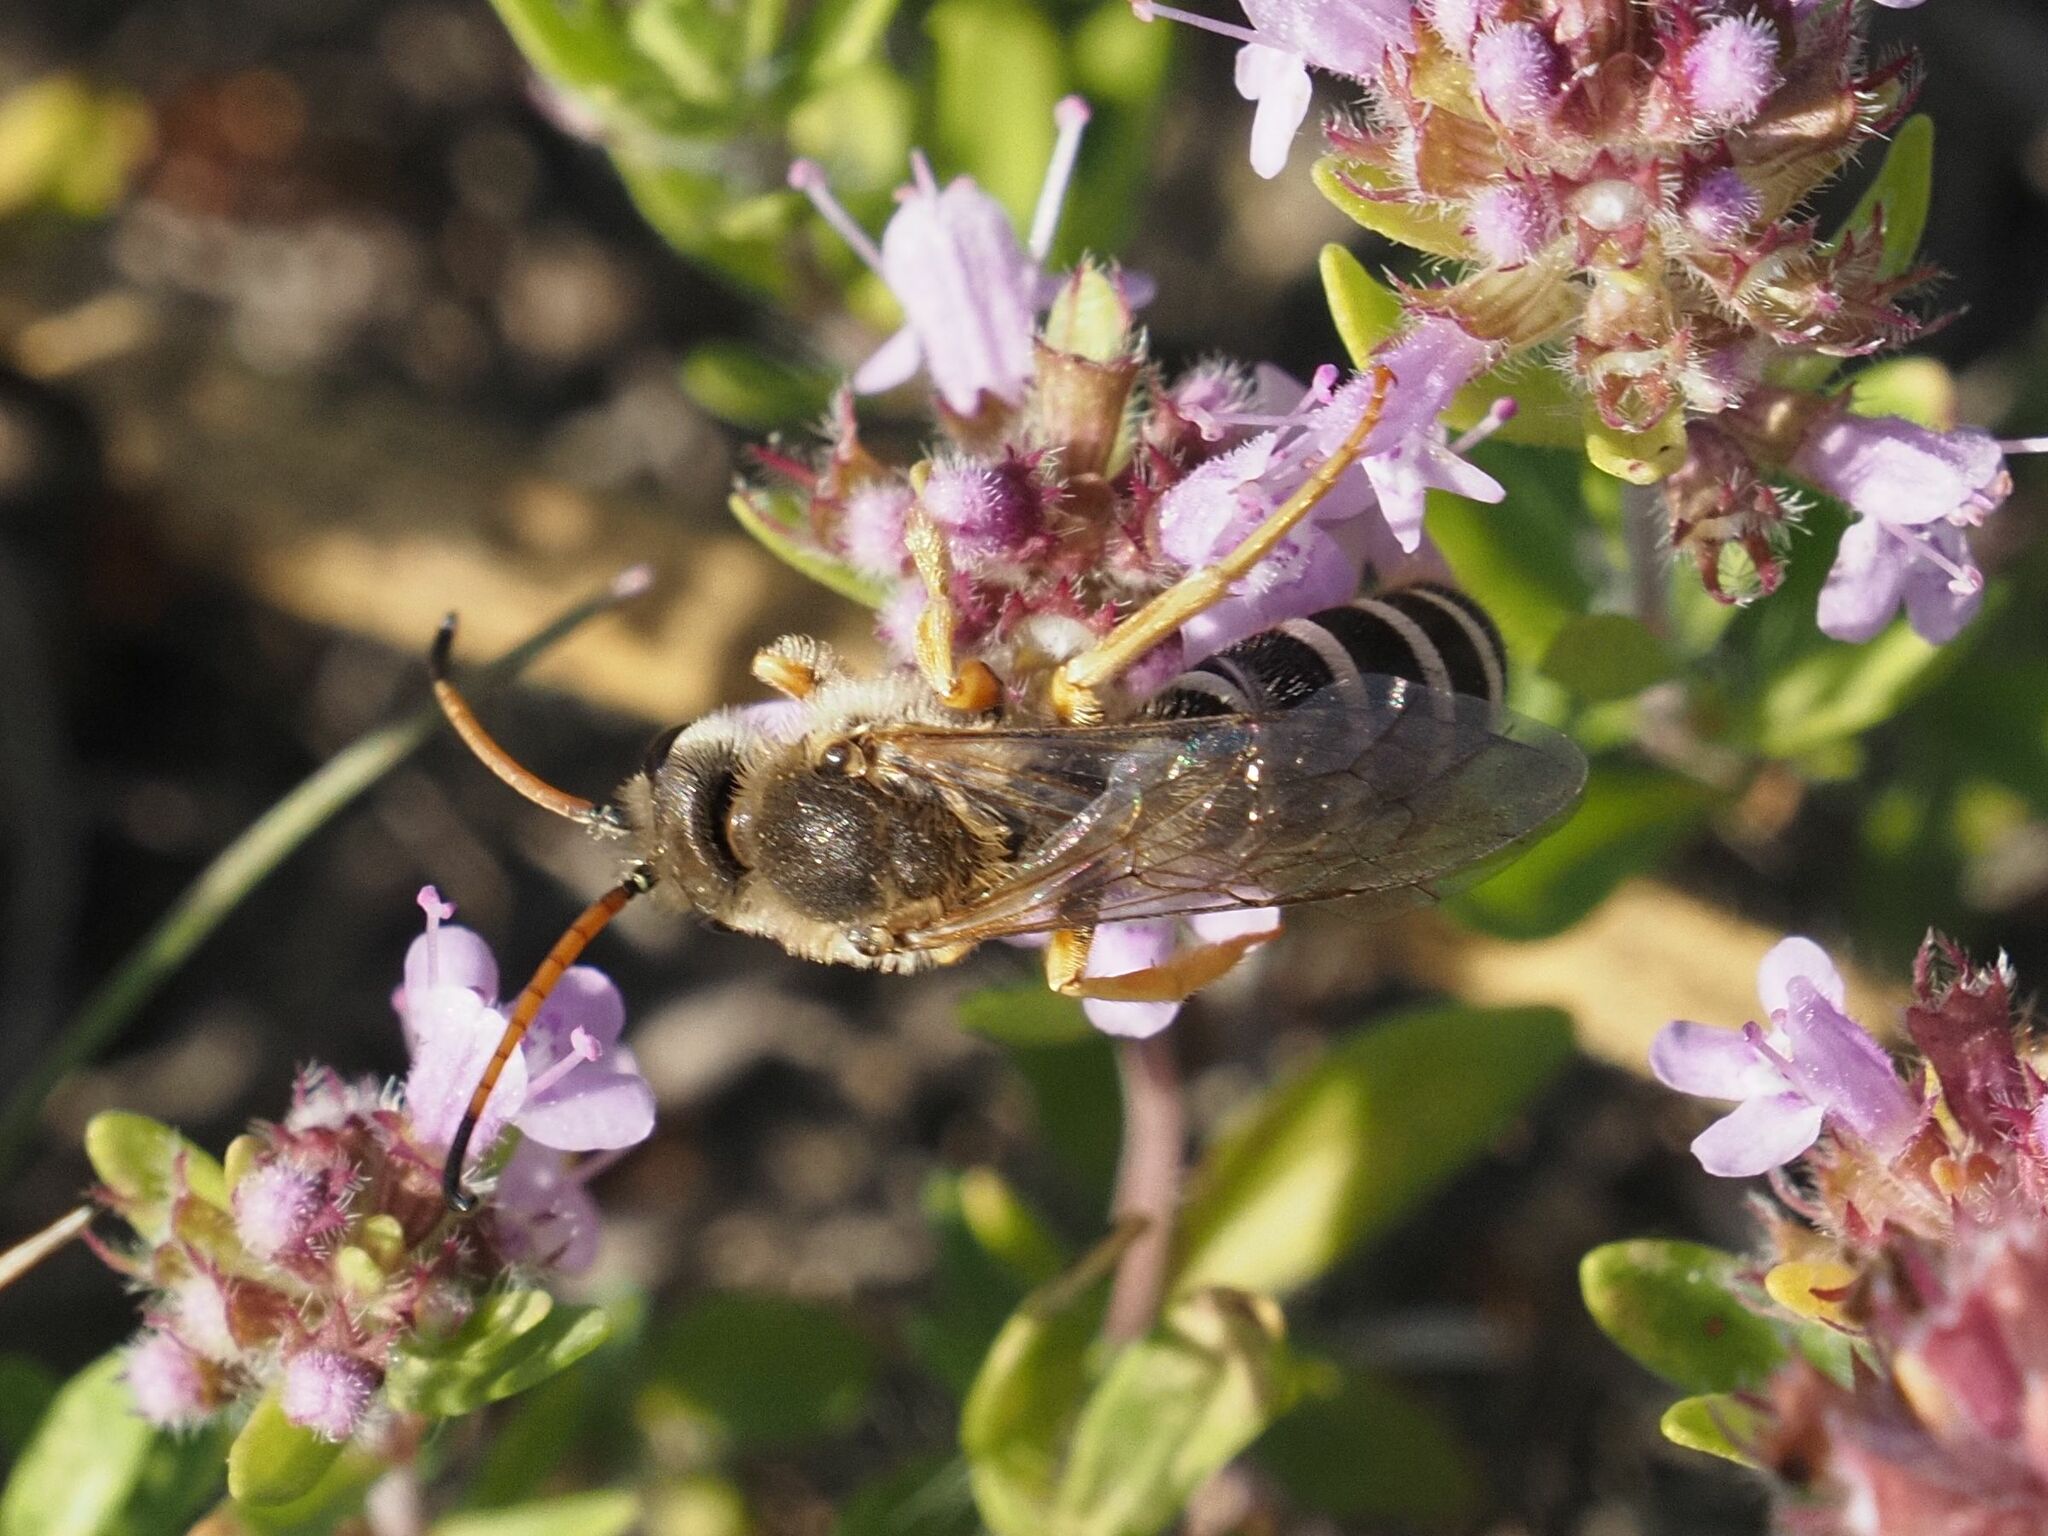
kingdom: Animalia
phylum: Arthropoda
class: Insecta
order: Hymenoptera
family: Halictidae
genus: Halictus
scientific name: Halictus sexcinctus
